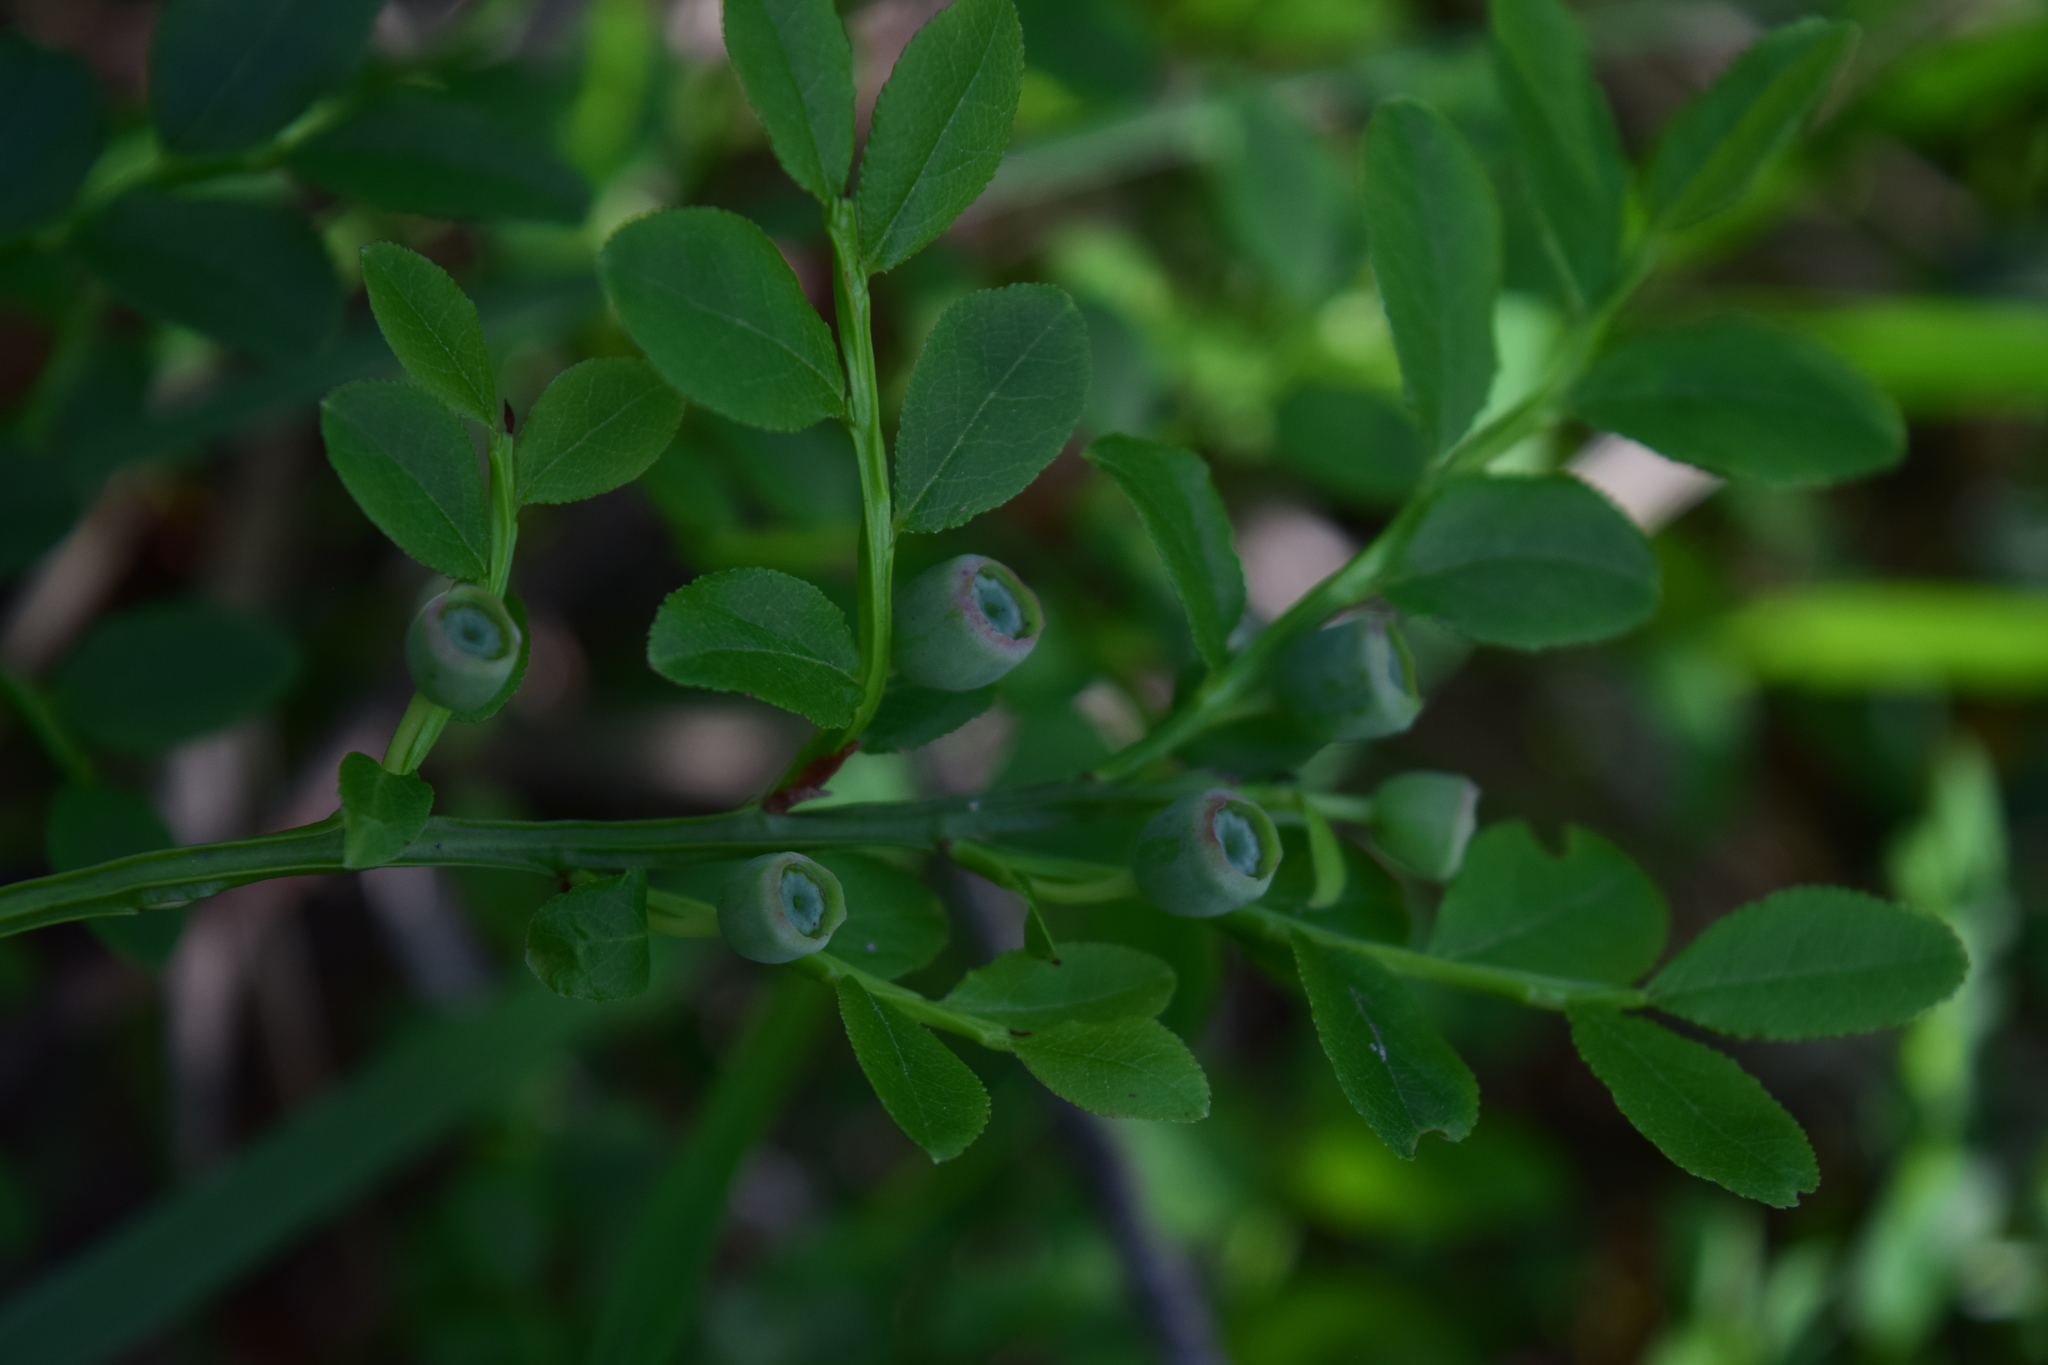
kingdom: Plantae
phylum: Tracheophyta
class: Magnoliopsida
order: Ericales
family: Ericaceae
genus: Vaccinium
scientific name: Vaccinium myrtillus
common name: Bilberry
